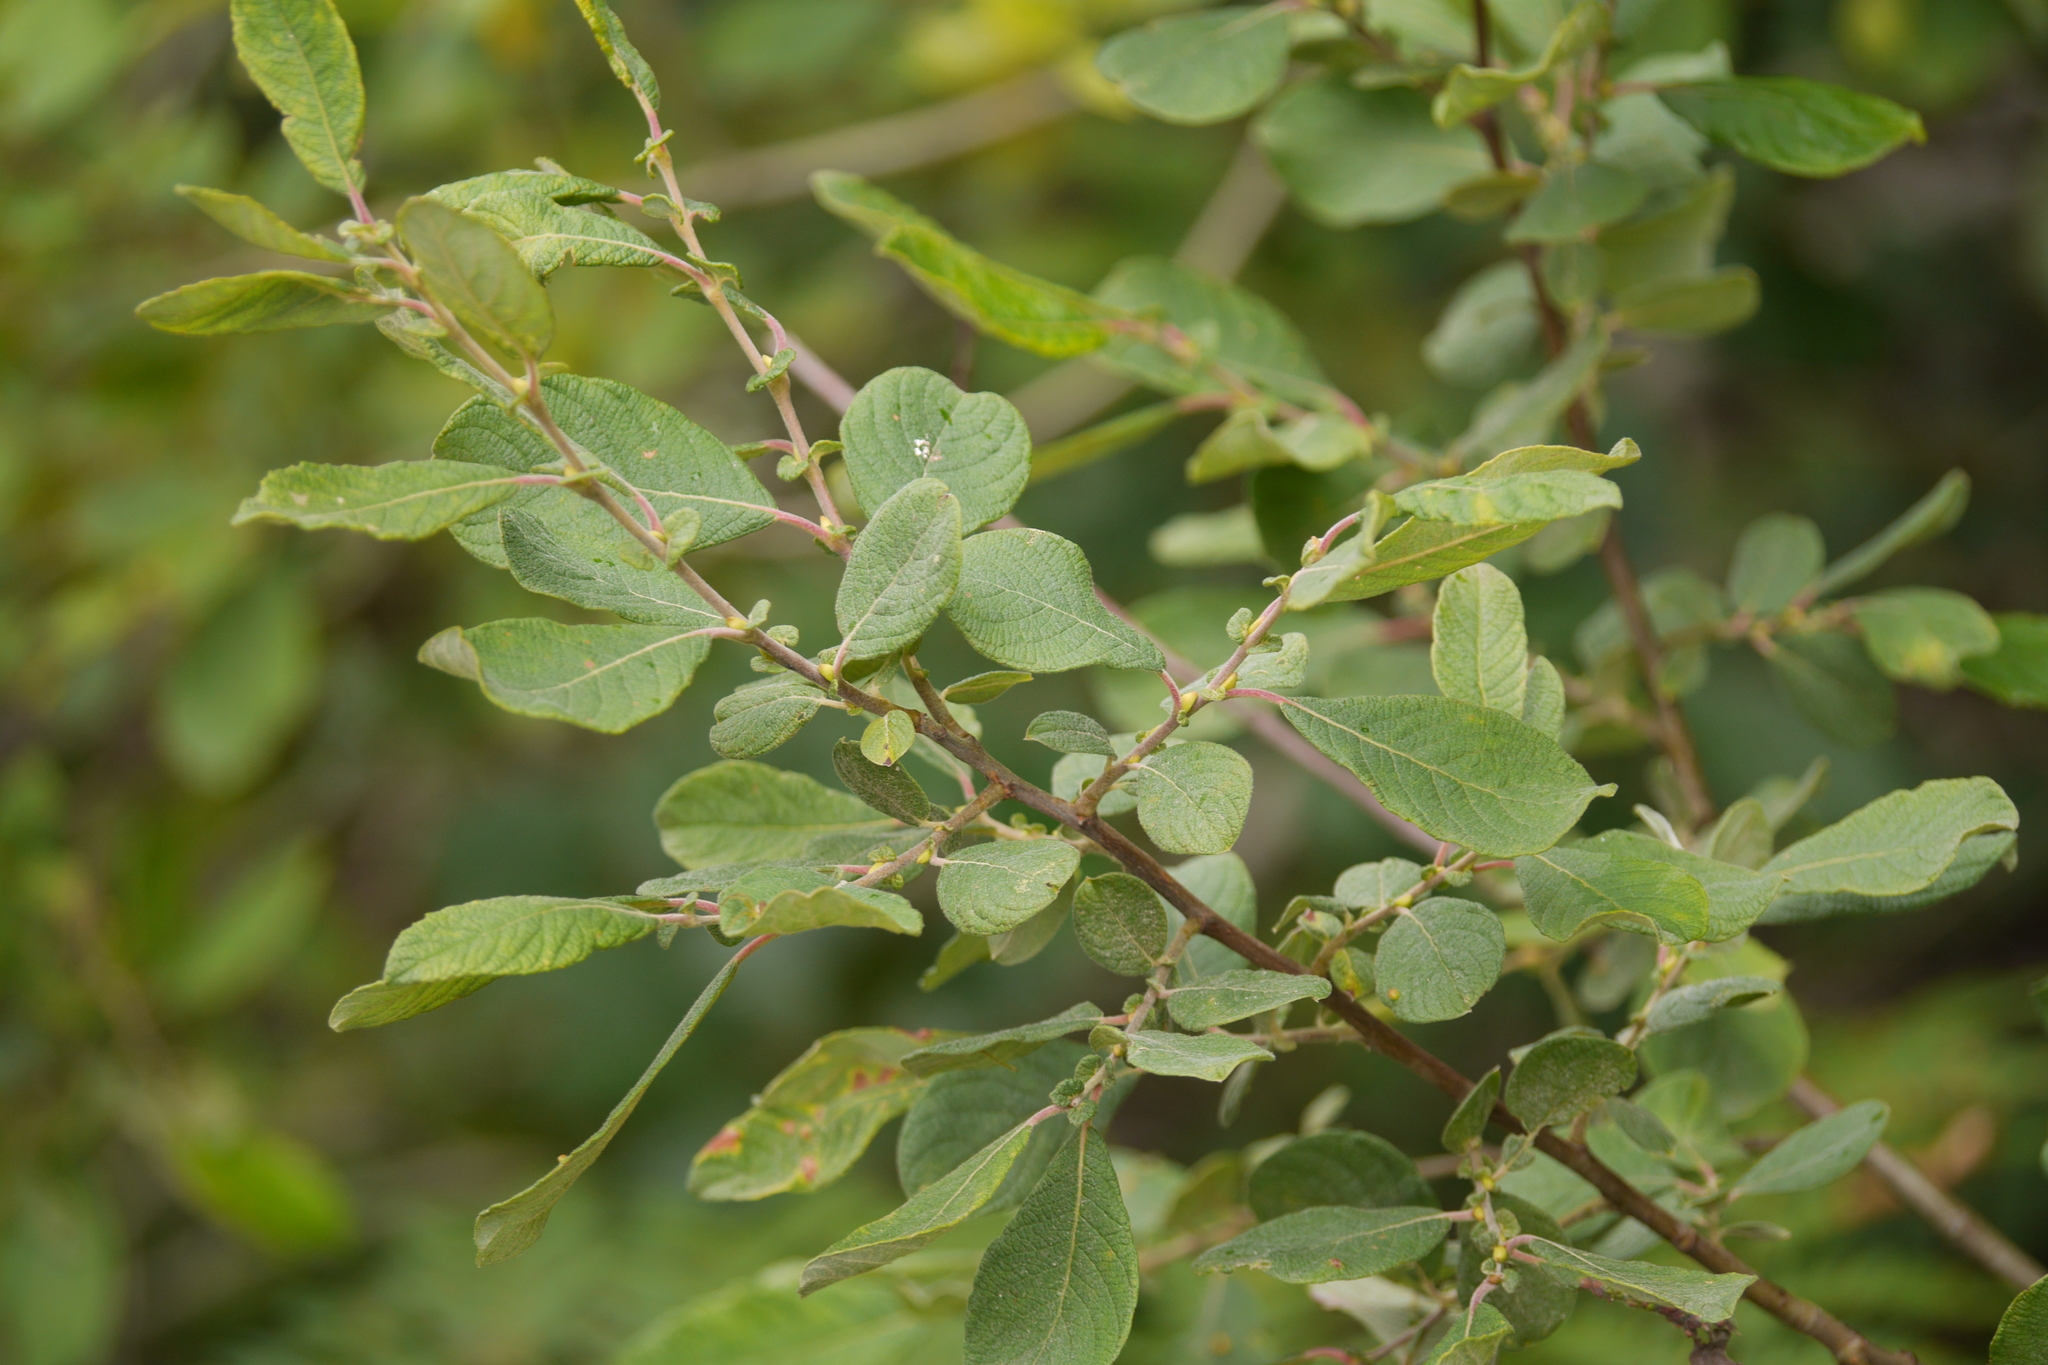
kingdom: Plantae
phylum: Tracheophyta
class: Magnoliopsida
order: Malpighiales
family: Salicaceae
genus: Salix
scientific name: Salix aurita
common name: Eared willow
